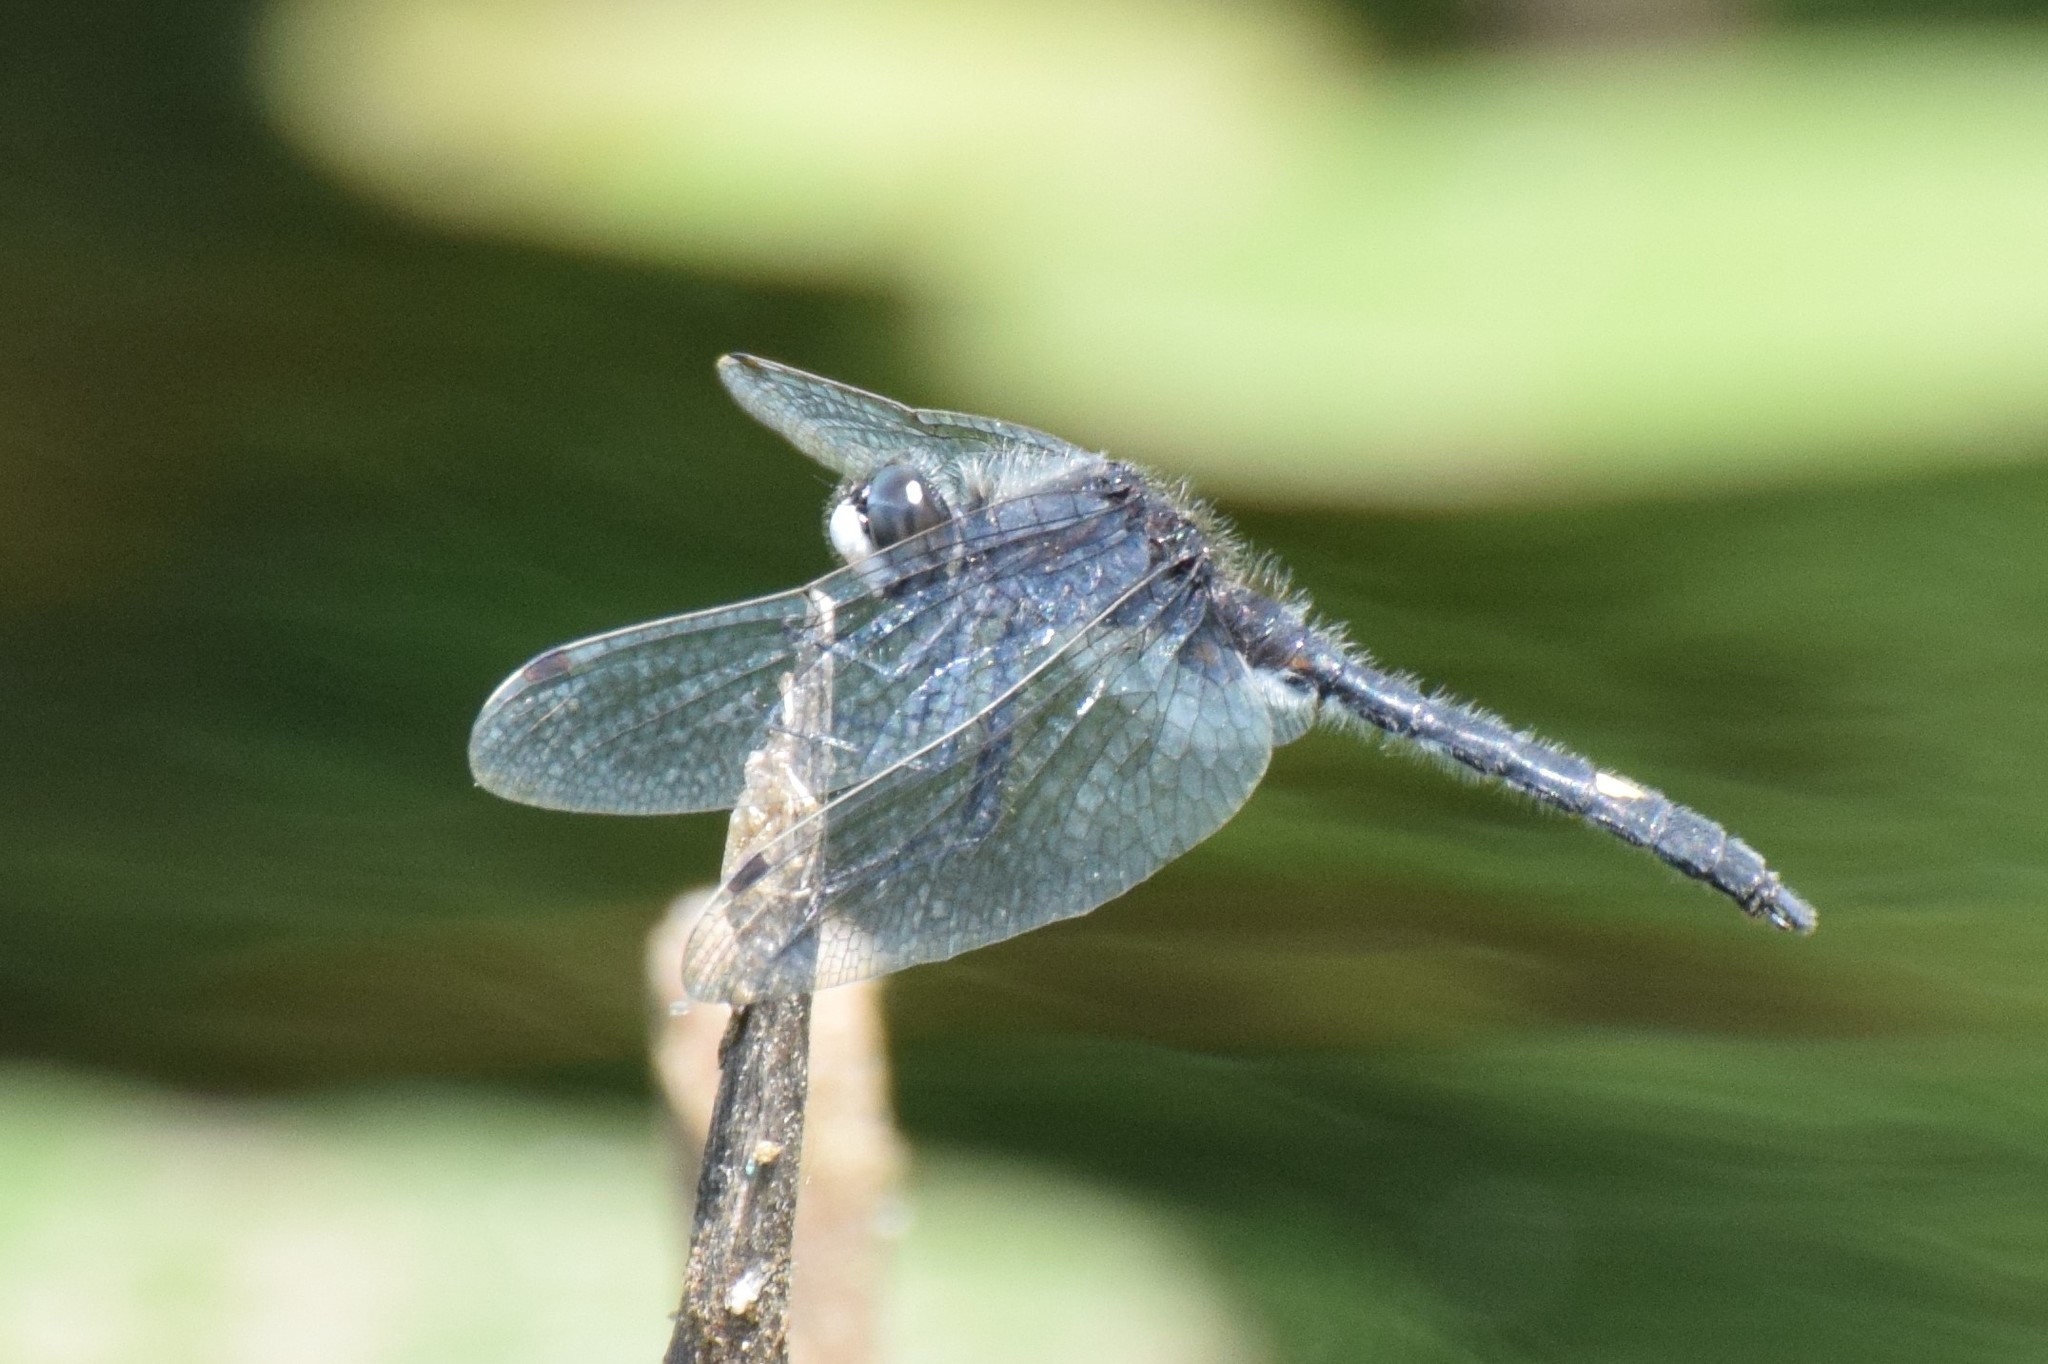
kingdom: Animalia
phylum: Arthropoda
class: Insecta
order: Odonata
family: Libellulidae
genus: Leucorrhinia
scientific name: Leucorrhinia intacta
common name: Dot-tailed whiteface
